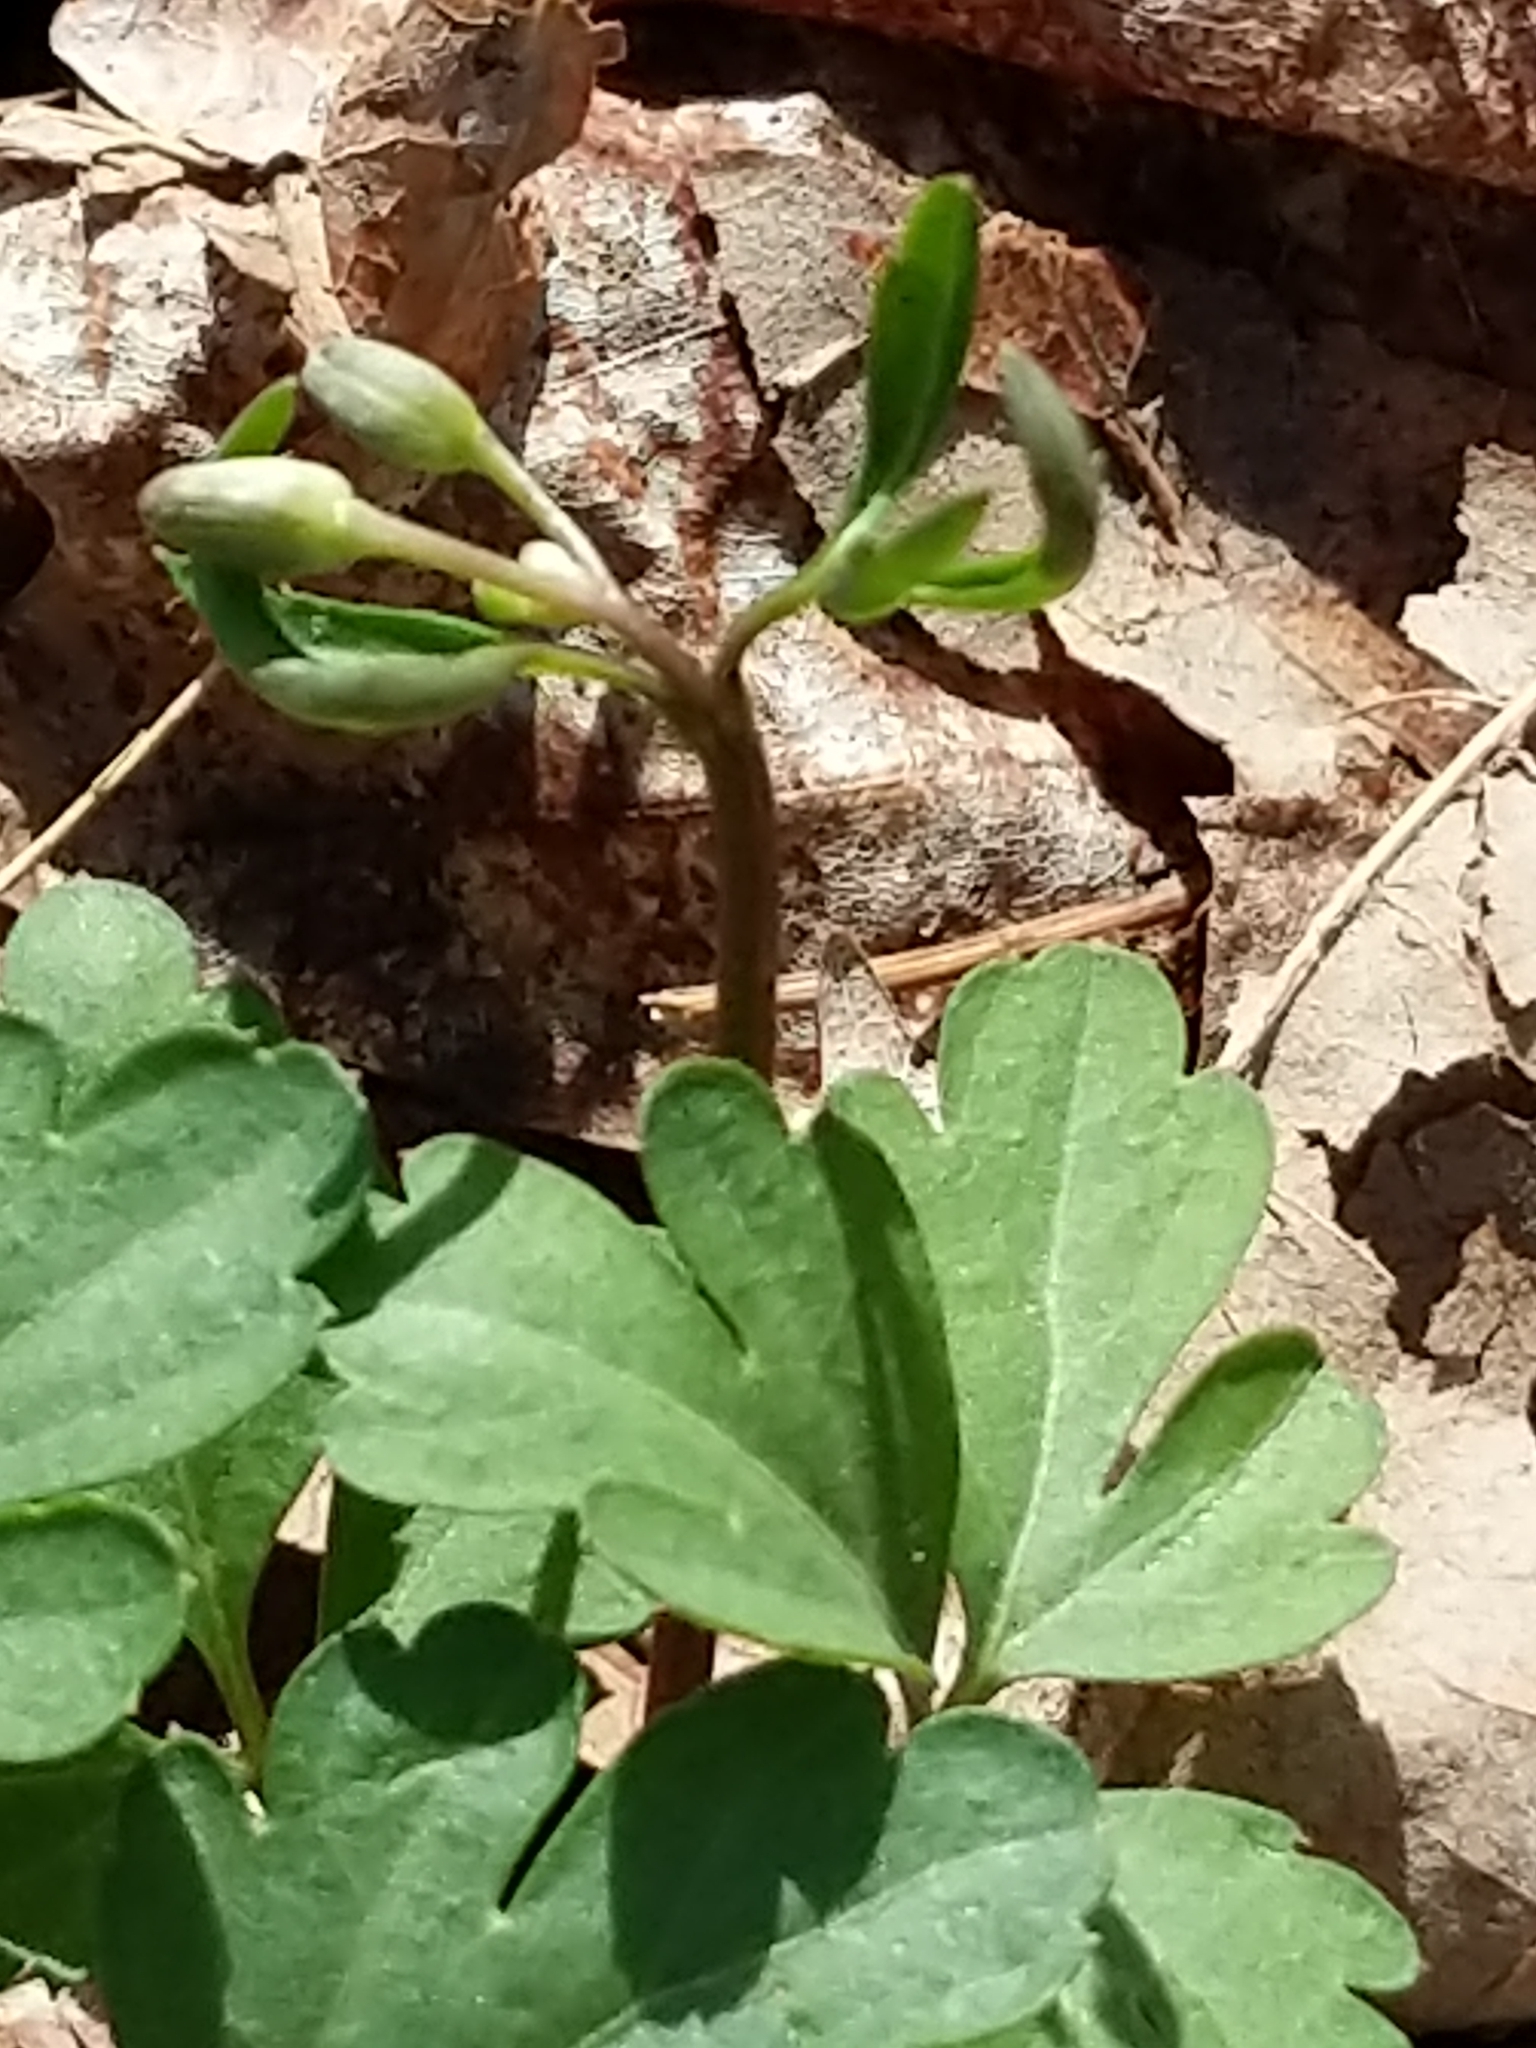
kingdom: Plantae
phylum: Tracheophyta
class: Magnoliopsida
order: Brassicales
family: Brassicaceae
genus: Cardamine
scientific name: Cardamine angustata
